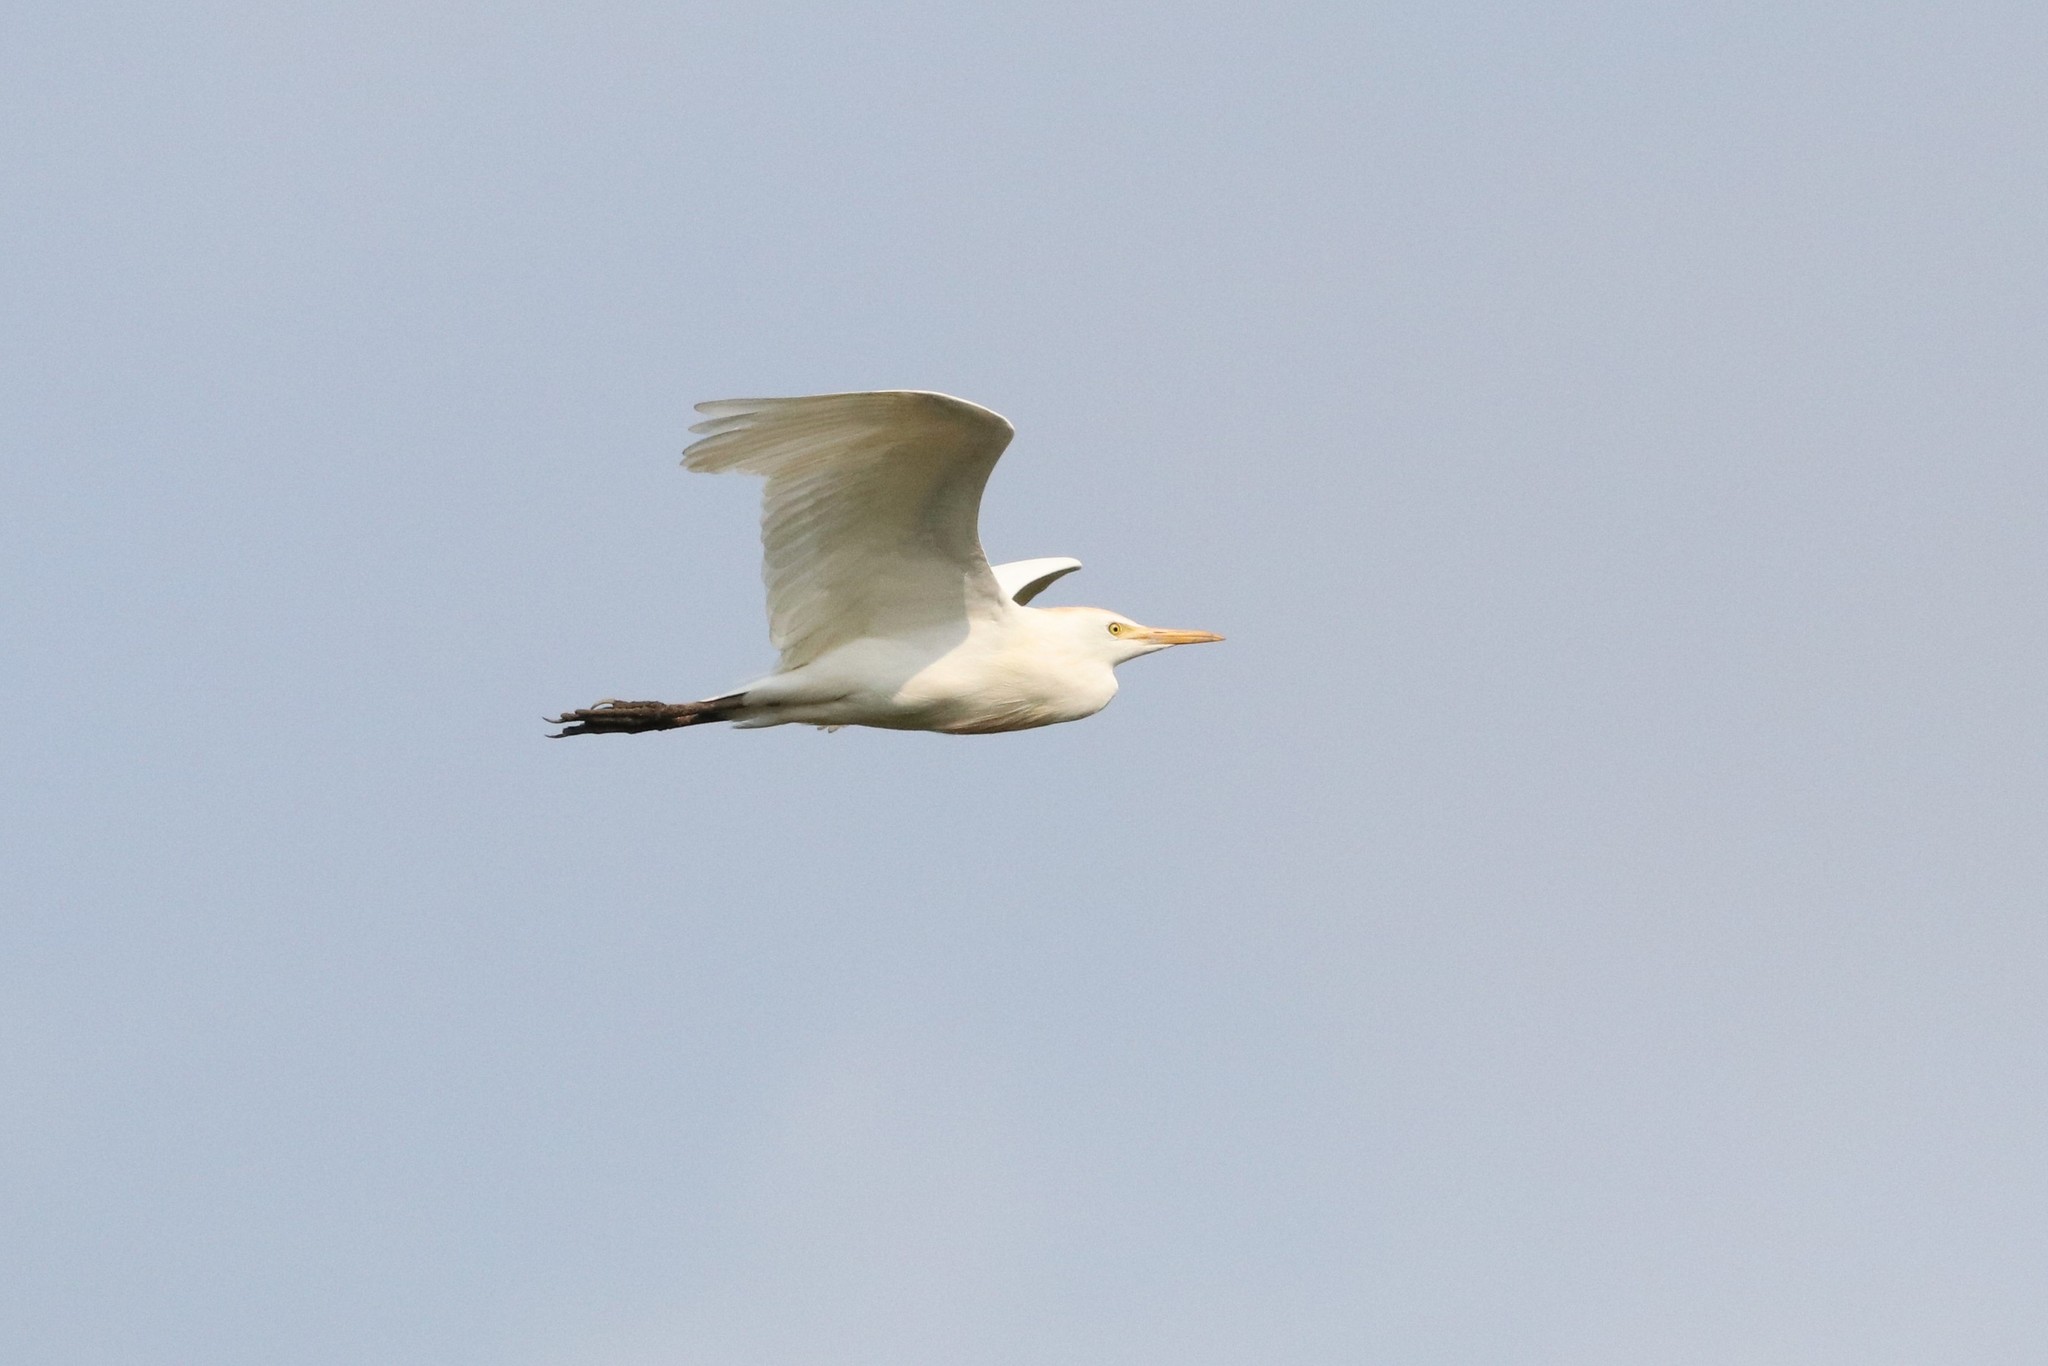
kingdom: Animalia
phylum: Chordata
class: Aves
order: Pelecaniformes
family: Ardeidae
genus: Bubulcus
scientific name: Bubulcus ibis
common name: Cattle egret
